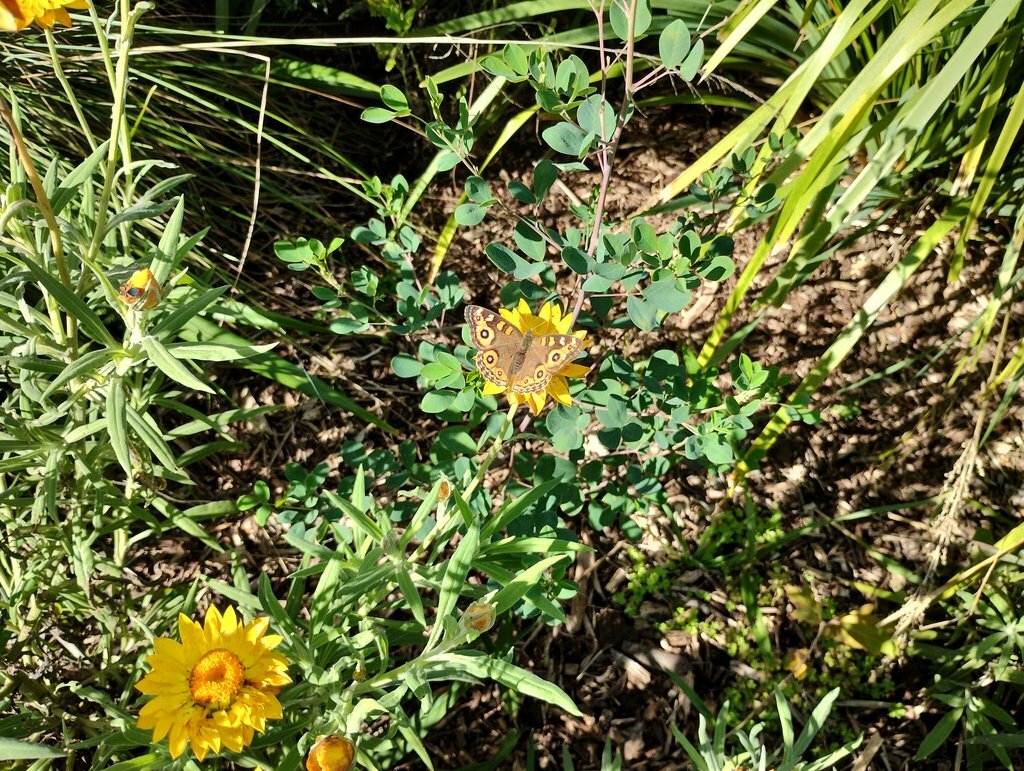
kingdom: Animalia
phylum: Arthropoda
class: Insecta
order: Lepidoptera
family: Nymphalidae
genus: Junonia
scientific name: Junonia villida
